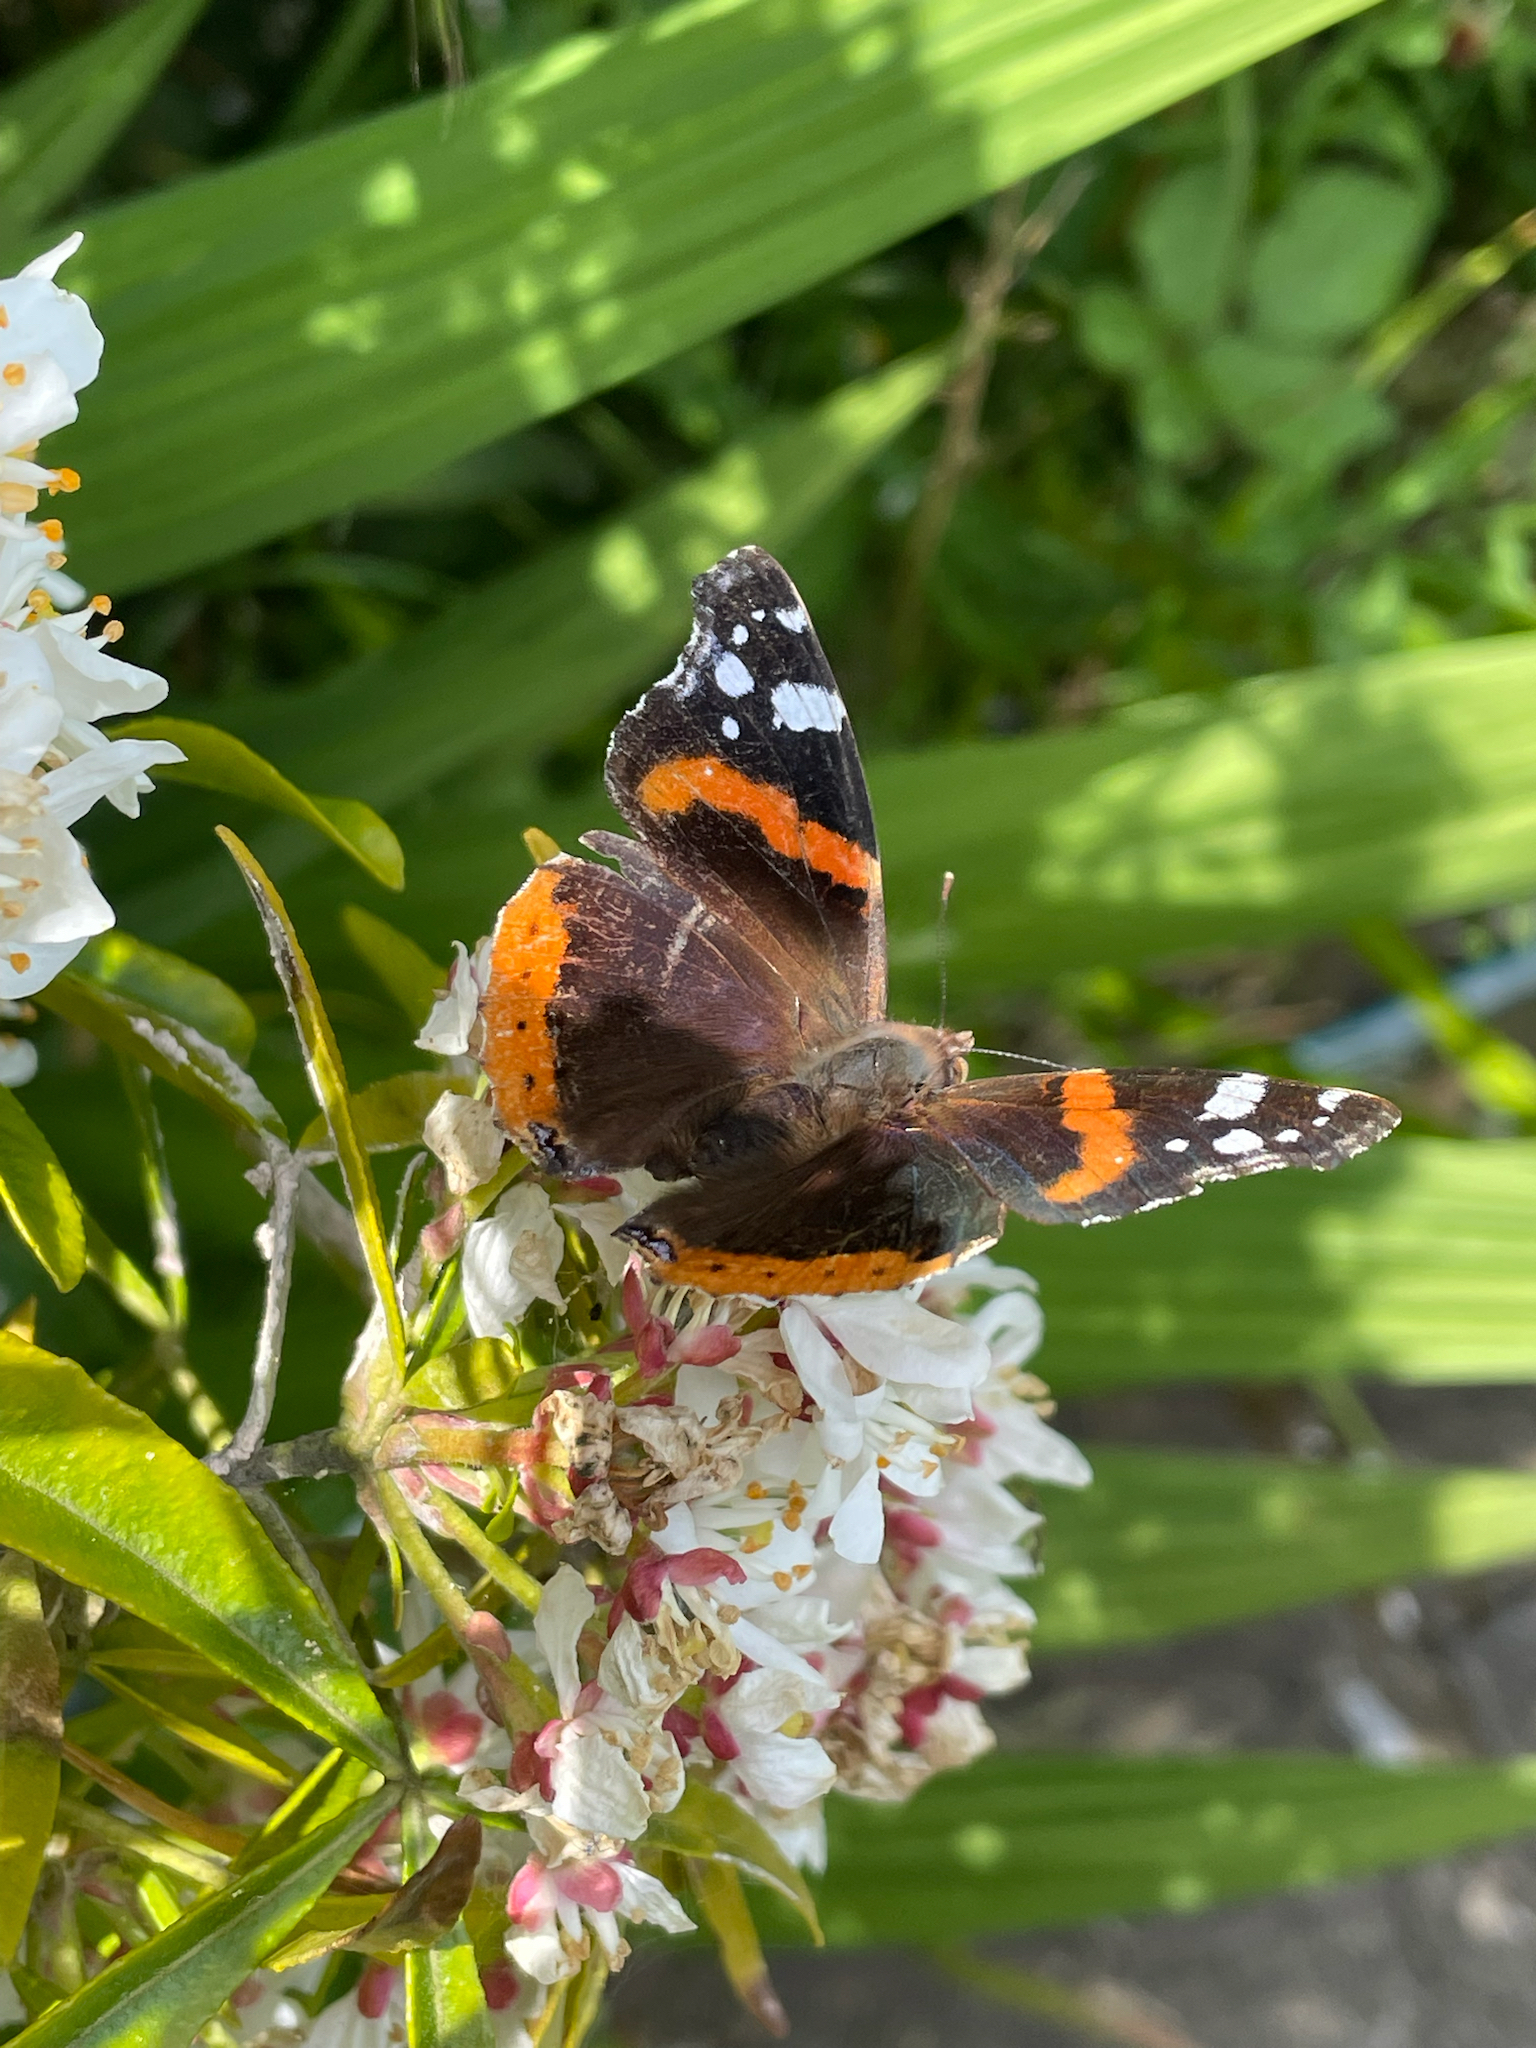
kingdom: Animalia
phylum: Arthropoda
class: Insecta
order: Lepidoptera
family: Nymphalidae
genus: Vanessa
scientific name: Vanessa atalanta
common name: Red admiral
